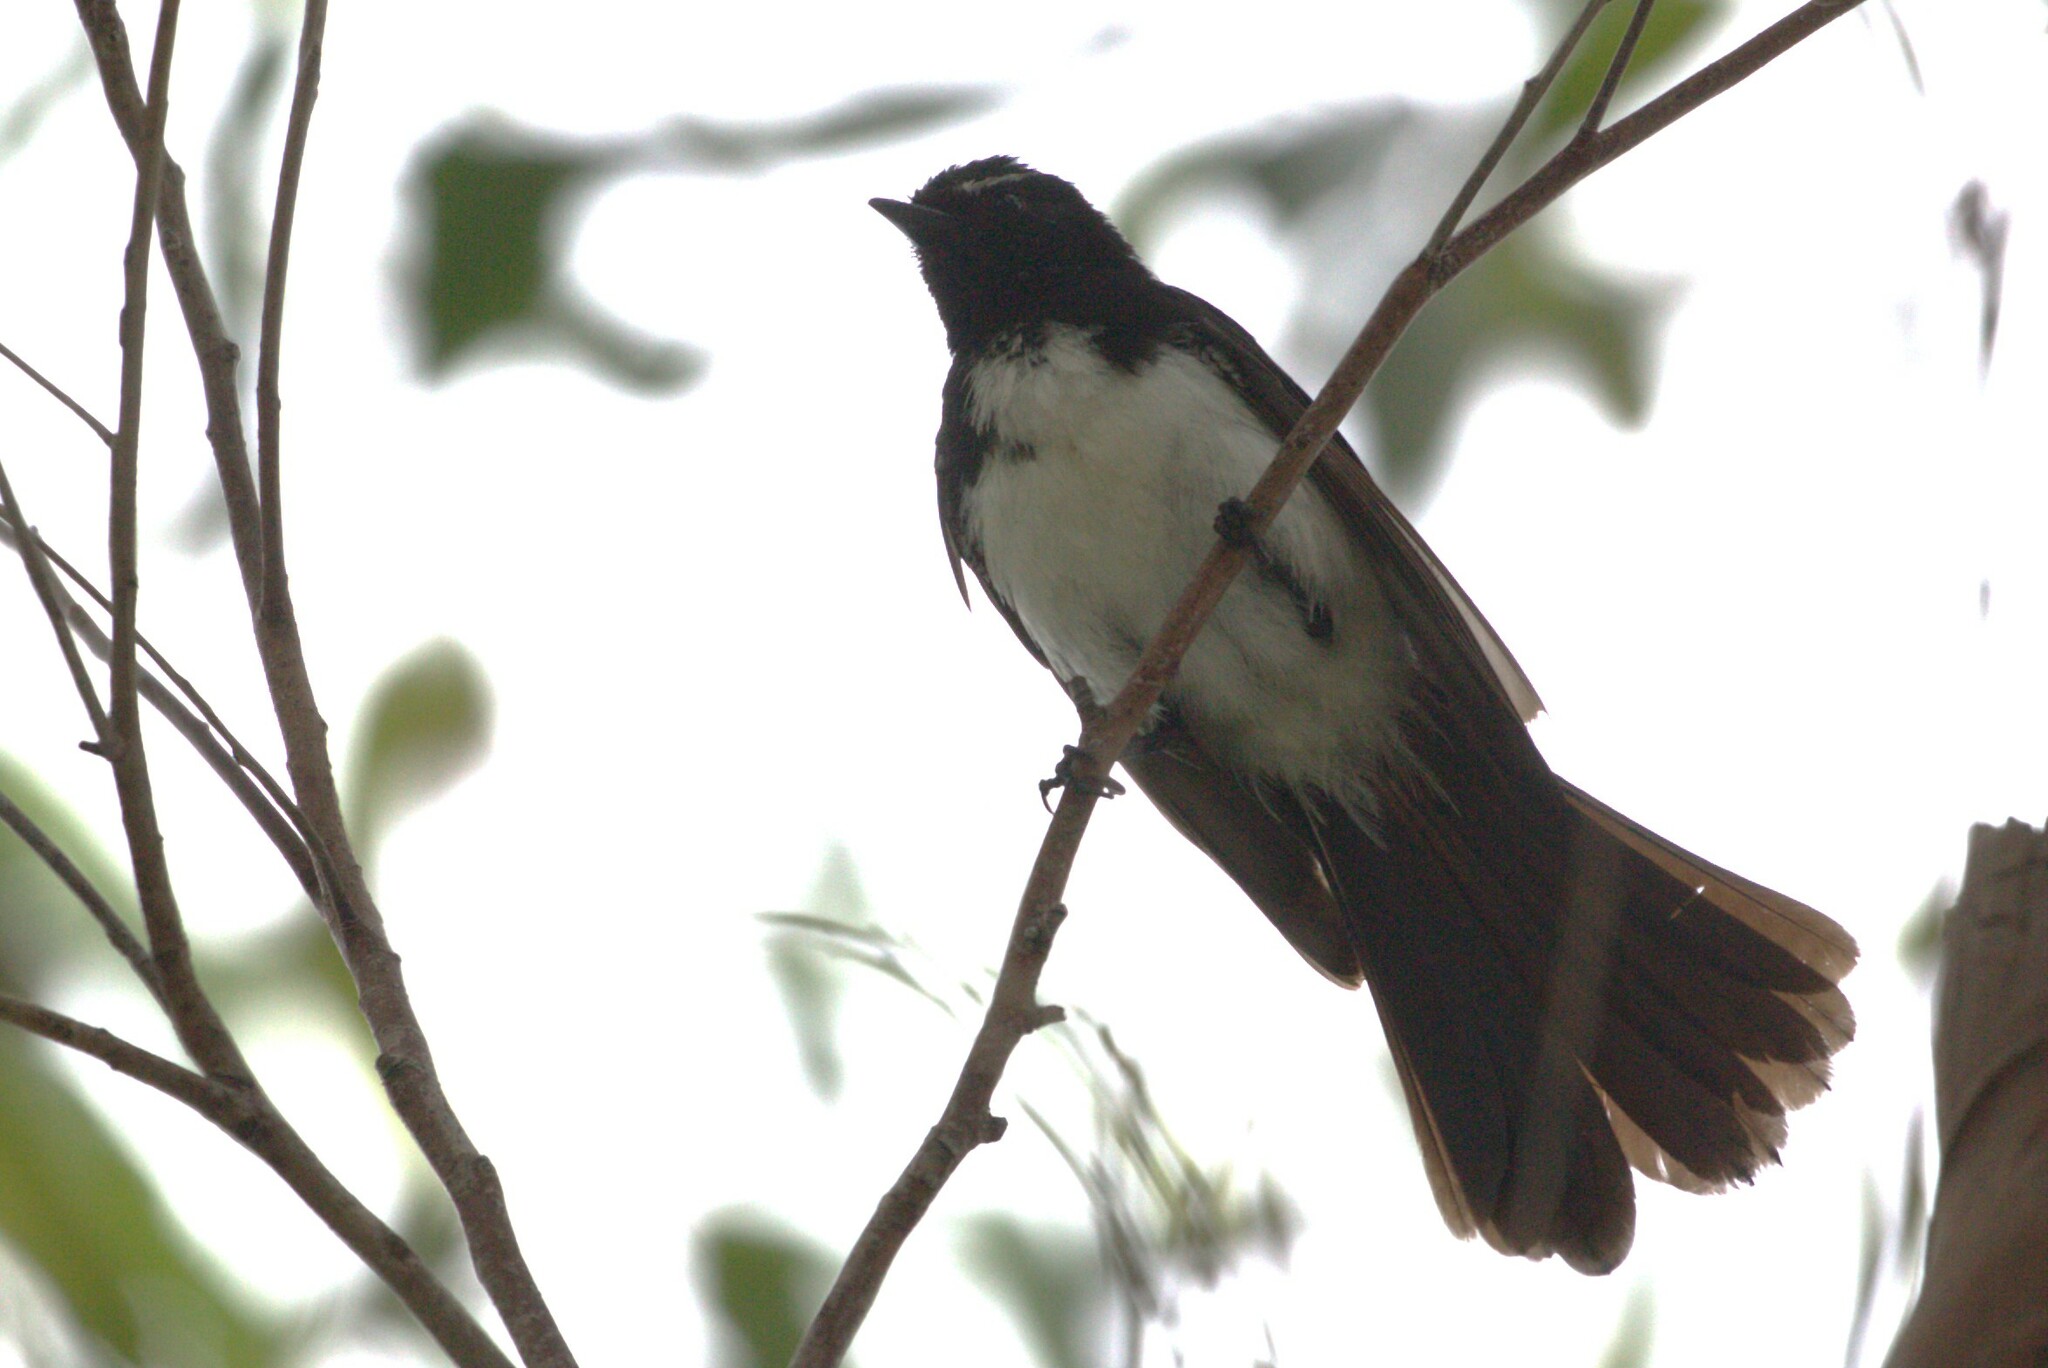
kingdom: Animalia
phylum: Chordata
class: Aves
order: Passeriformes
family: Rhipiduridae
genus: Rhipidura
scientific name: Rhipidura leucophrys
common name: Willie wagtail
